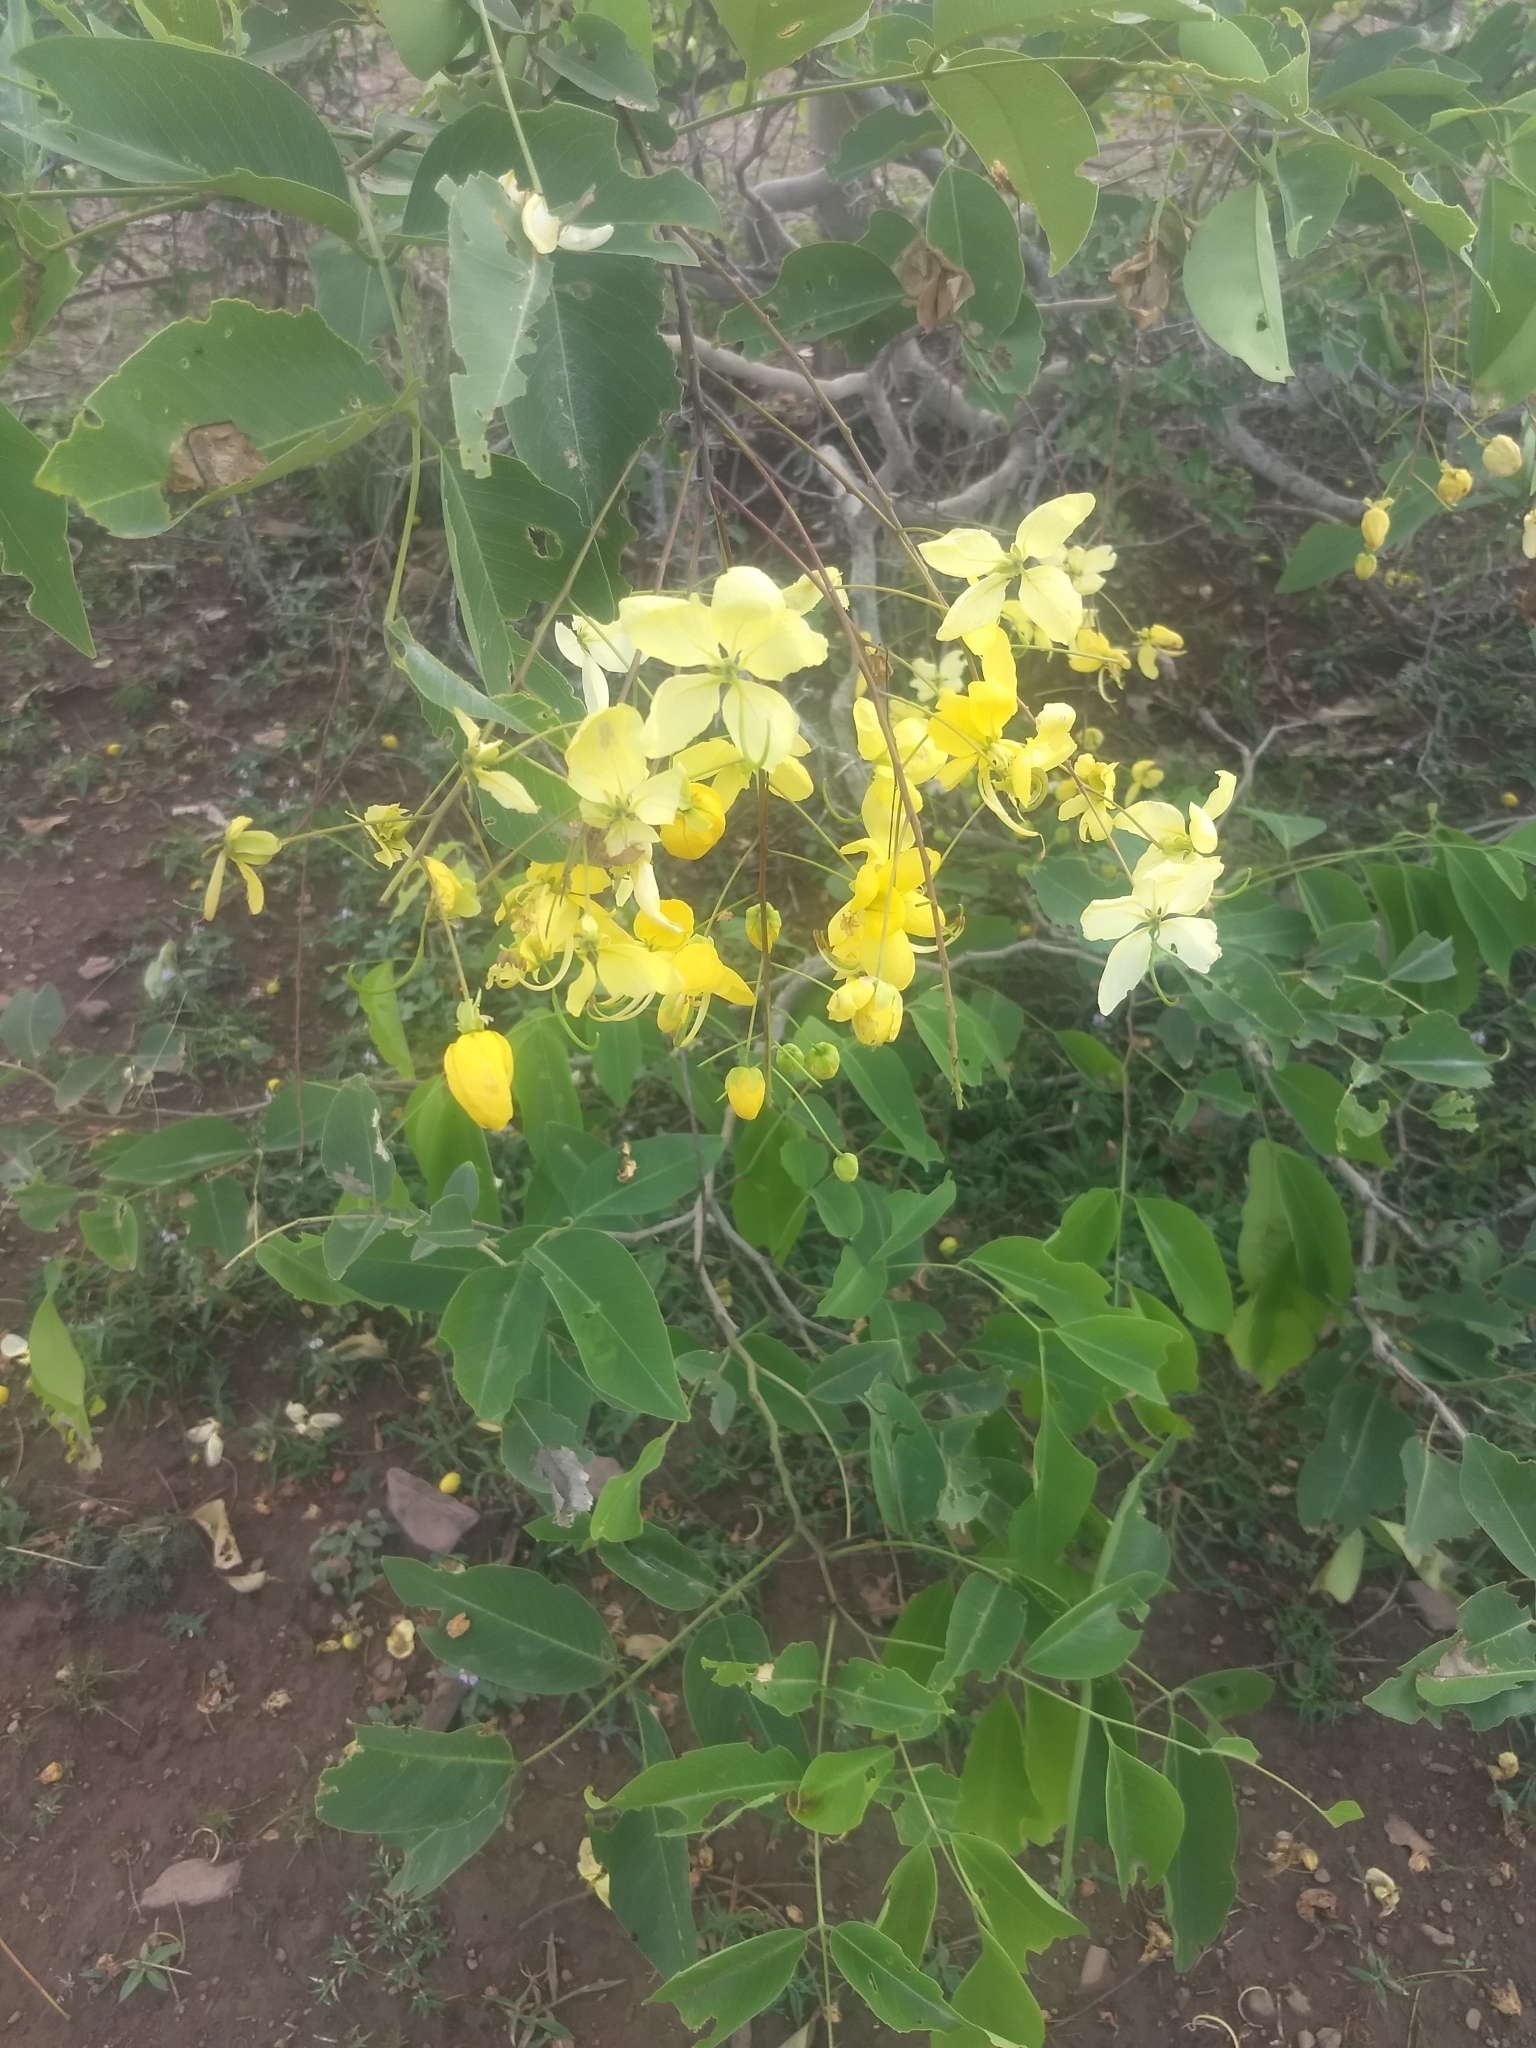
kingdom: Plantae
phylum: Tracheophyta
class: Magnoliopsida
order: Fabales
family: Fabaceae
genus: Cassia
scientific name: Cassia fistula
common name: Golden shower
